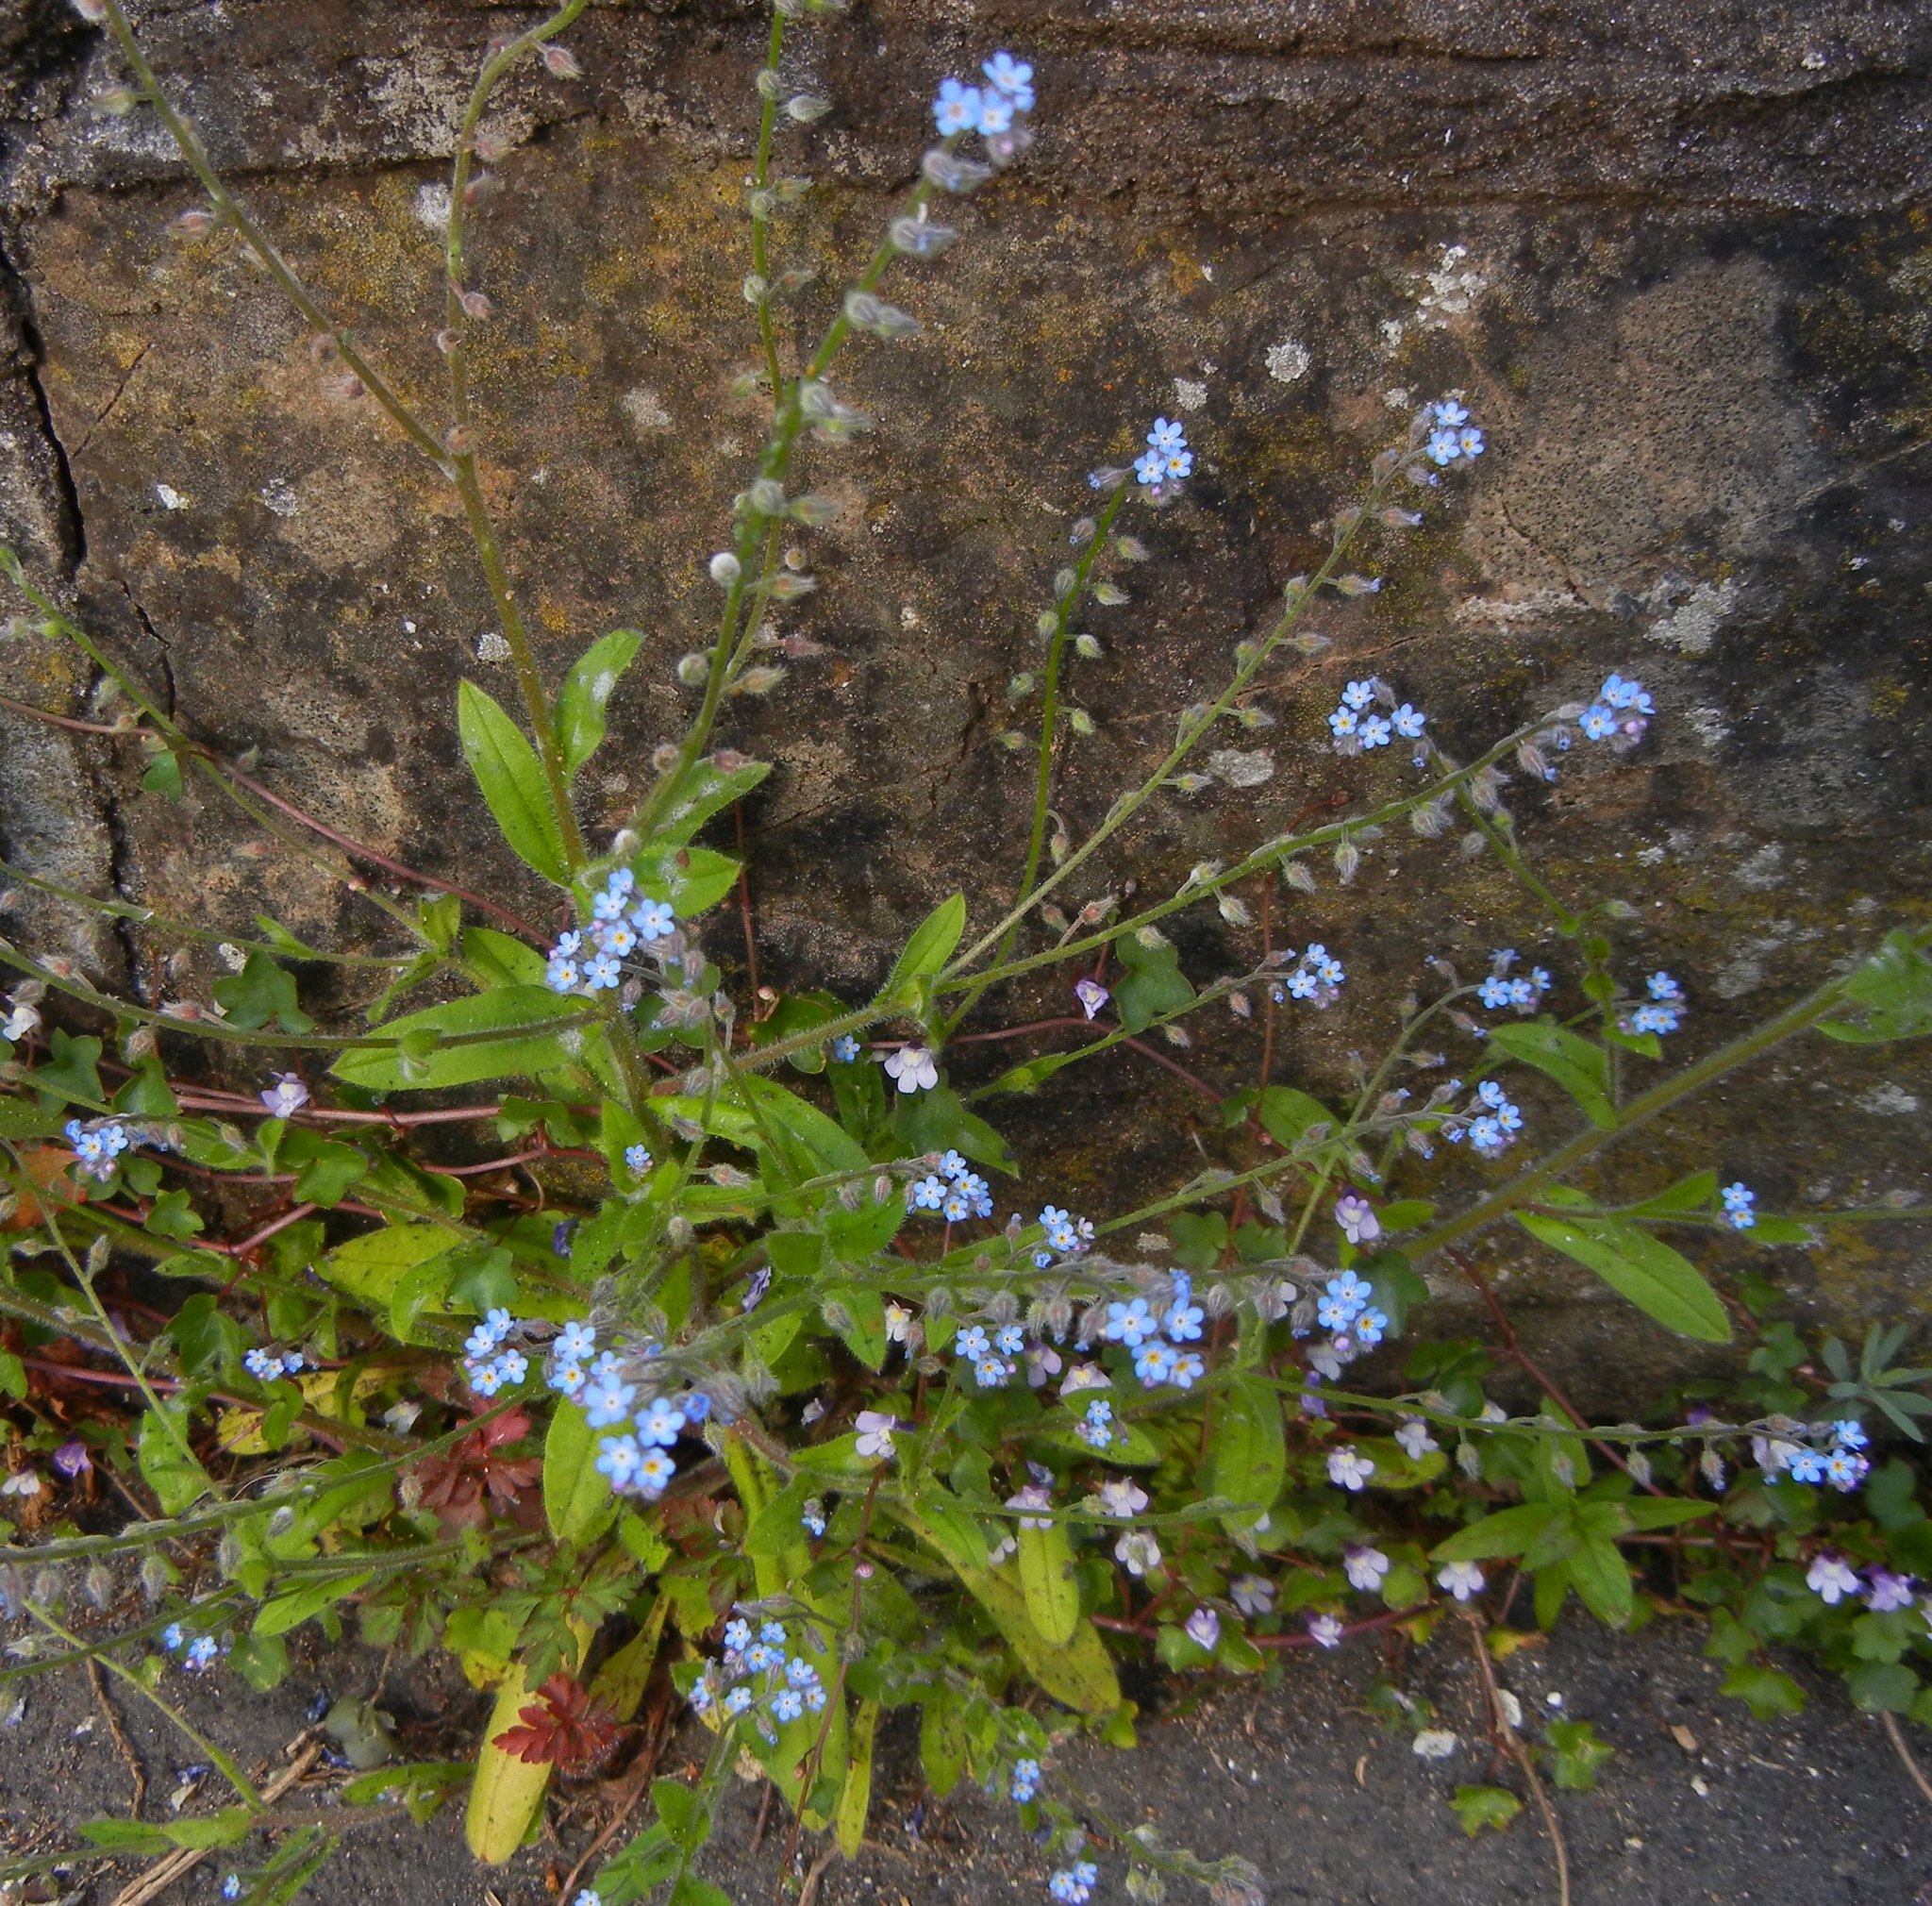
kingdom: Plantae
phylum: Tracheophyta
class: Magnoliopsida
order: Boraginales
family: Boraginaceae
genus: Myosotis
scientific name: Myosotis arvensis
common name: Field forget-me-not
